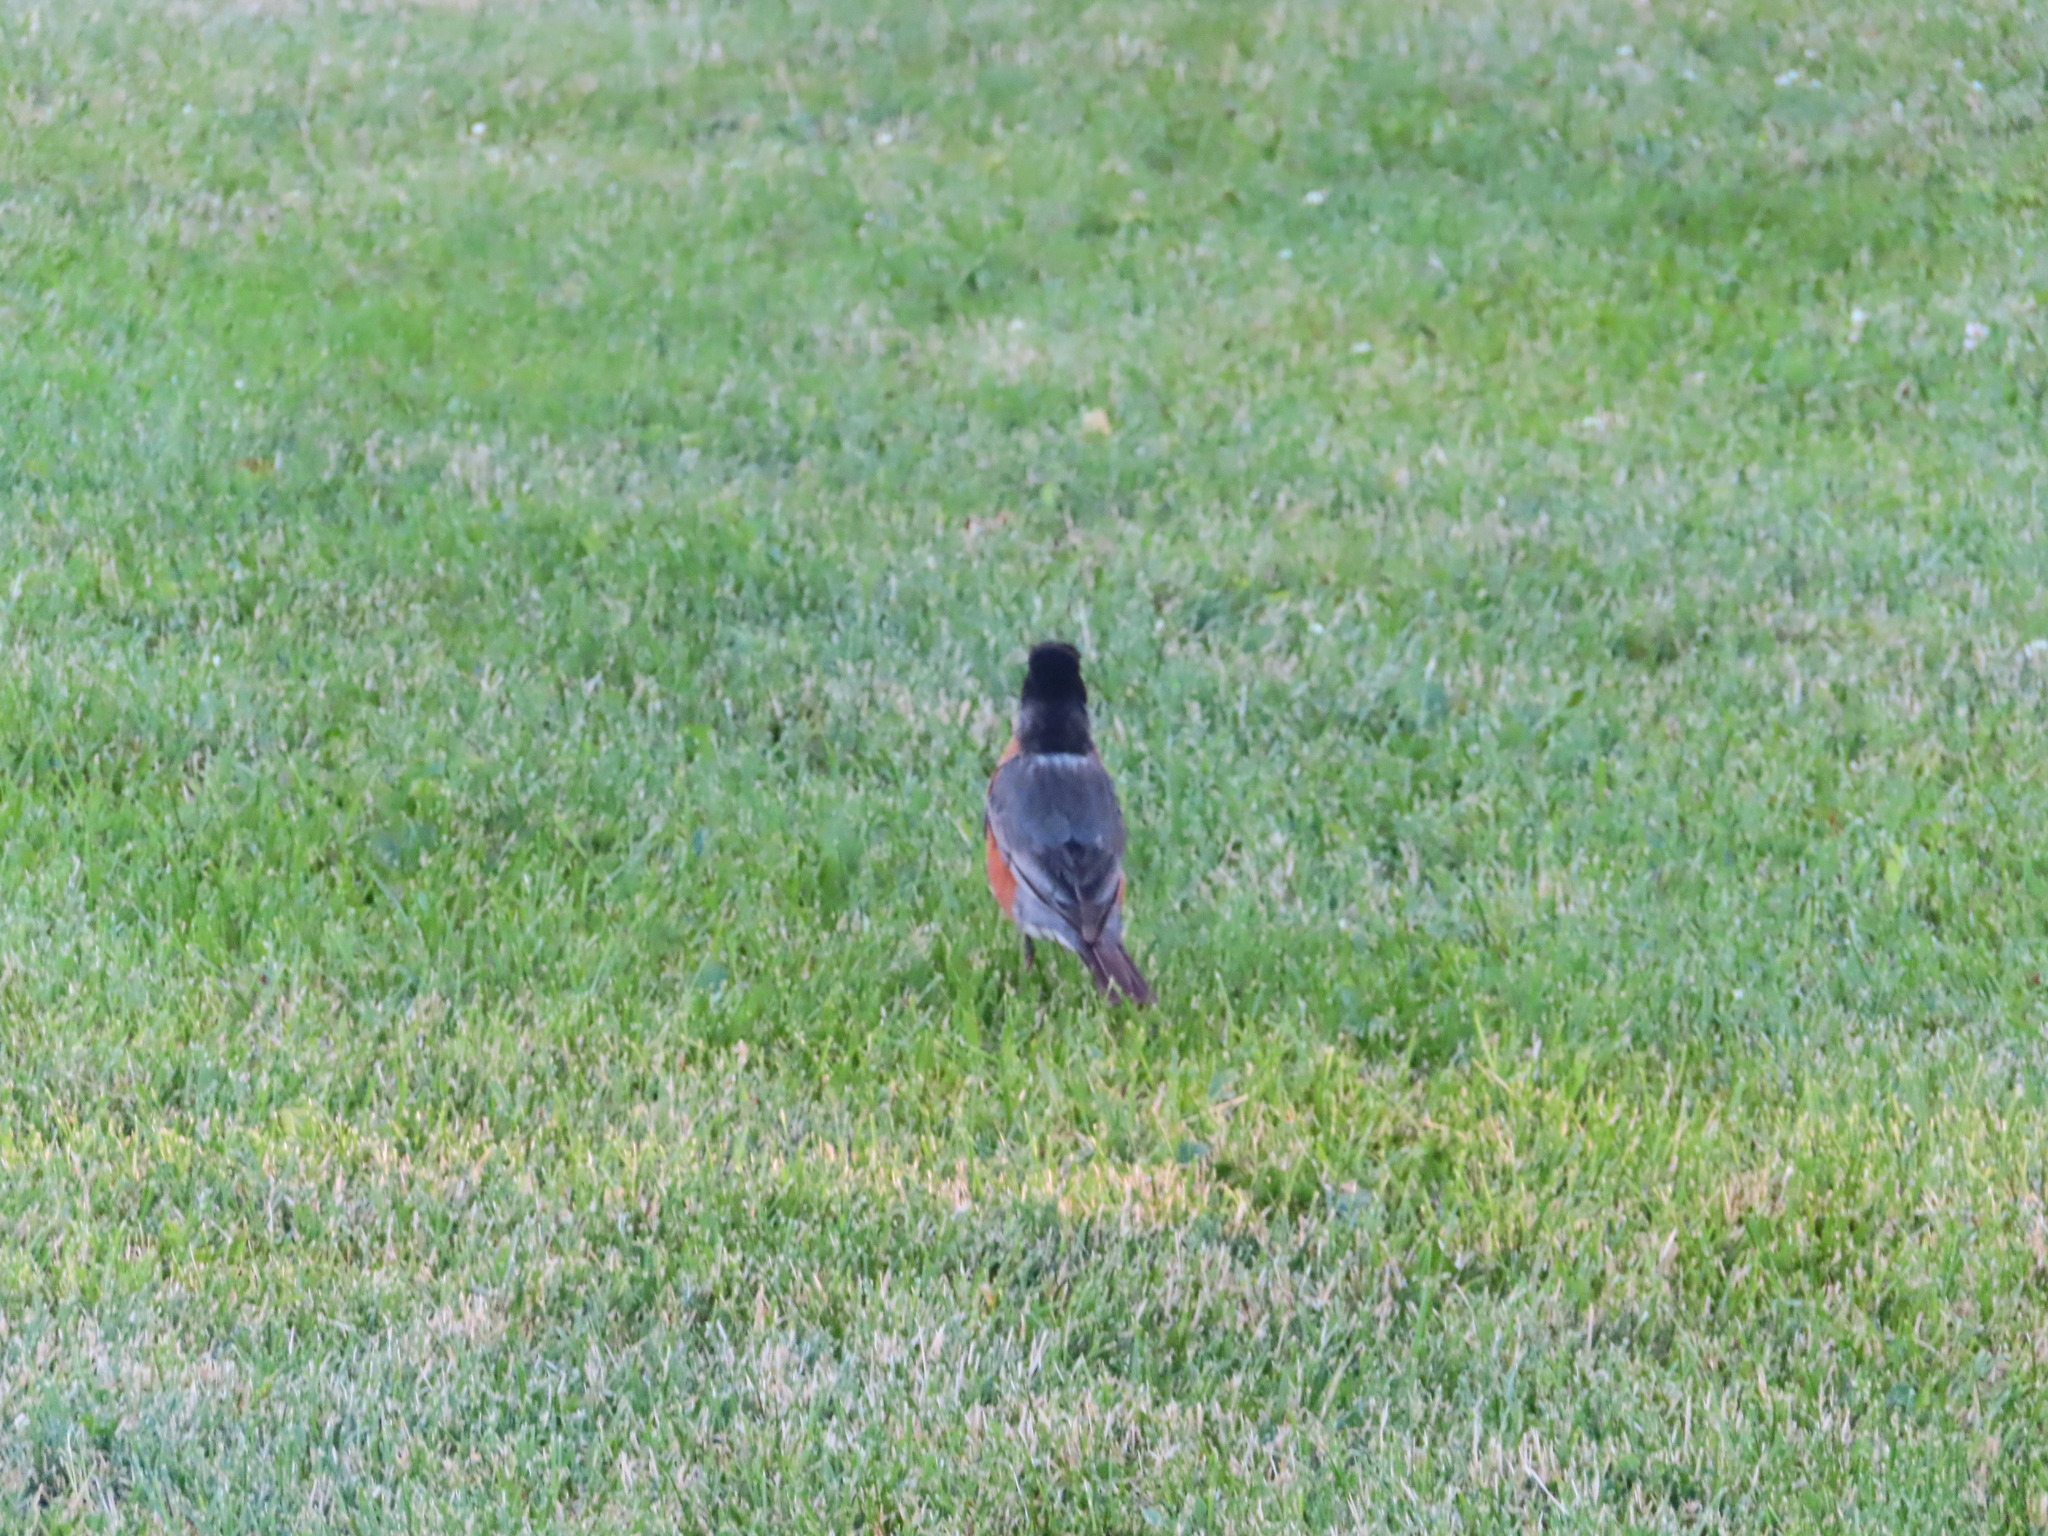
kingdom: Animalia
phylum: Chordata
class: Aves
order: Passeriformes
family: Turdidae
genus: Turdus
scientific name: Turdus migratorius
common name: American robin
